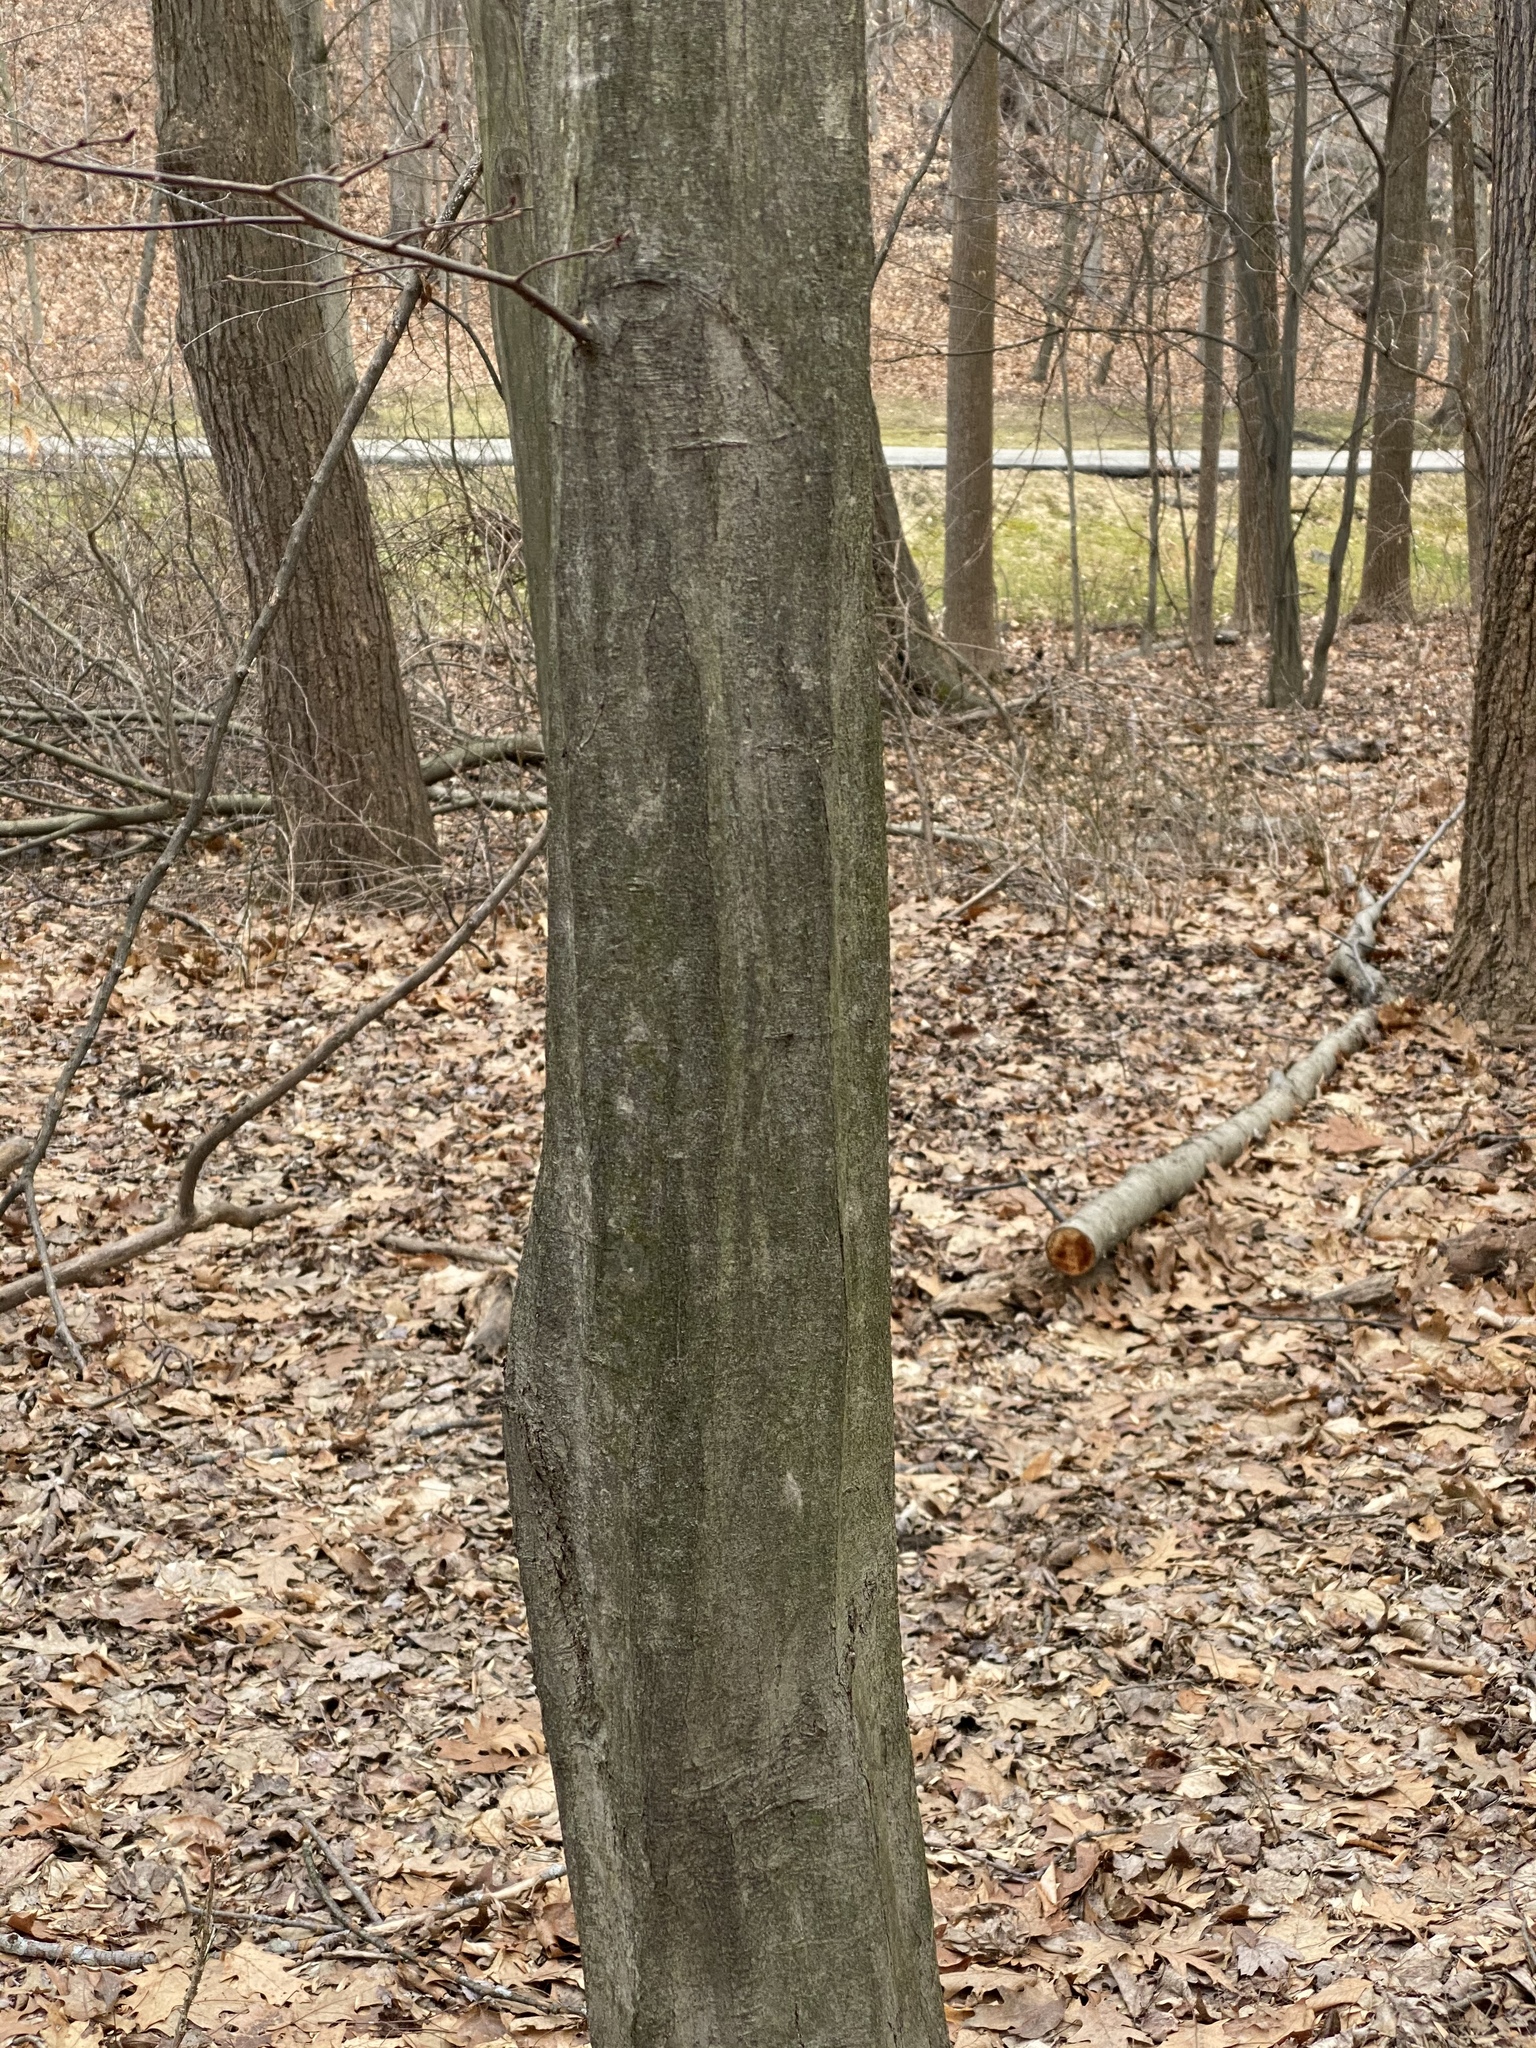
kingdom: Plantae
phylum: Tracheophyta
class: Magnoliopsida
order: Fagales
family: Betulaceae
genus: Carpinus
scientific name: Carpinus caroliniana
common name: American hornbeam
